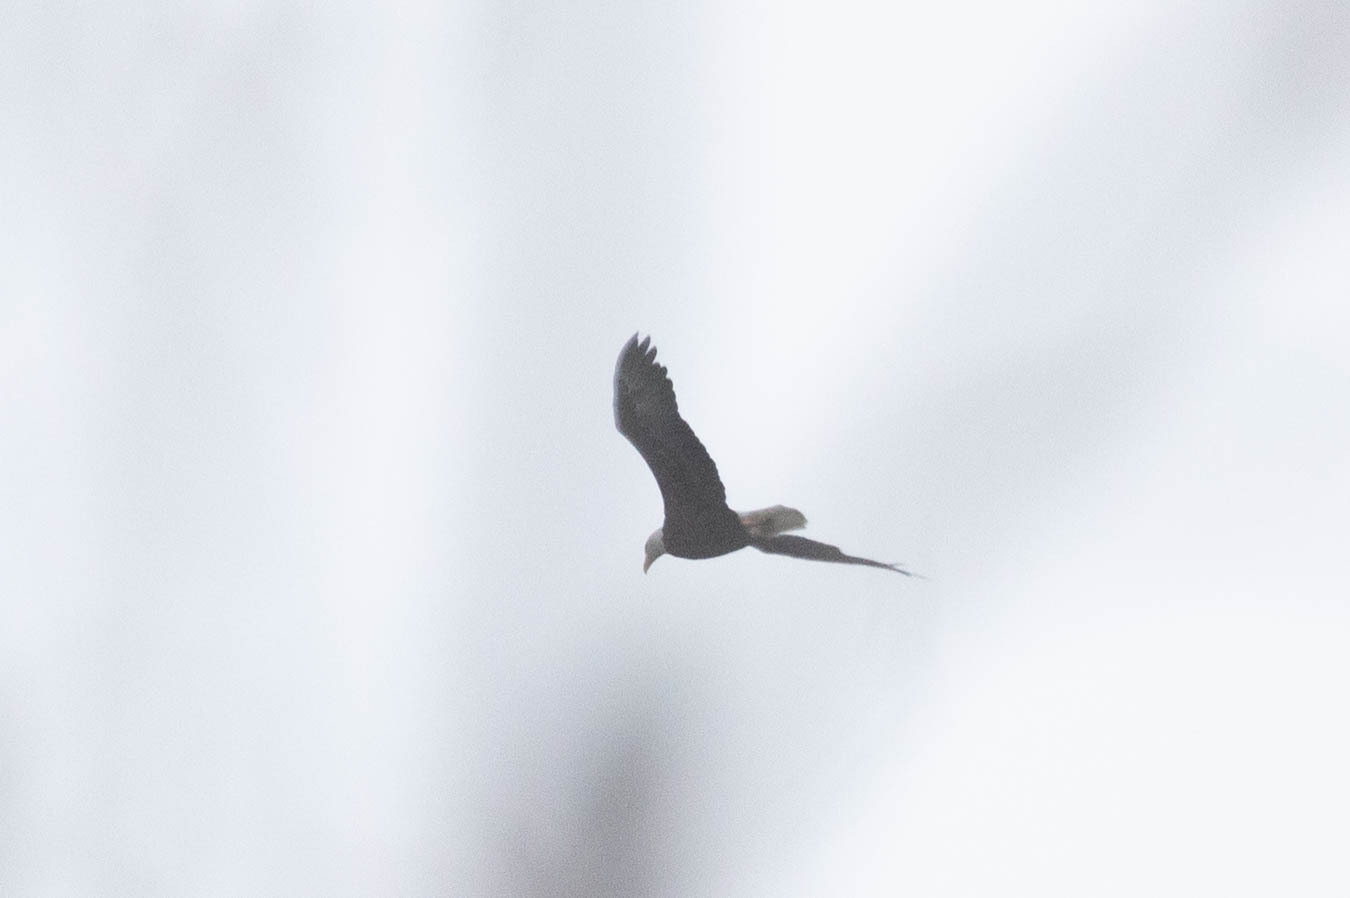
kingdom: Animalia
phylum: Chordata
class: Aves
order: Accipitriformes
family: Accipitridae
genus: Haliaeetus
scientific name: Haliaeetus leucocephalus
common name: Bald eagle
